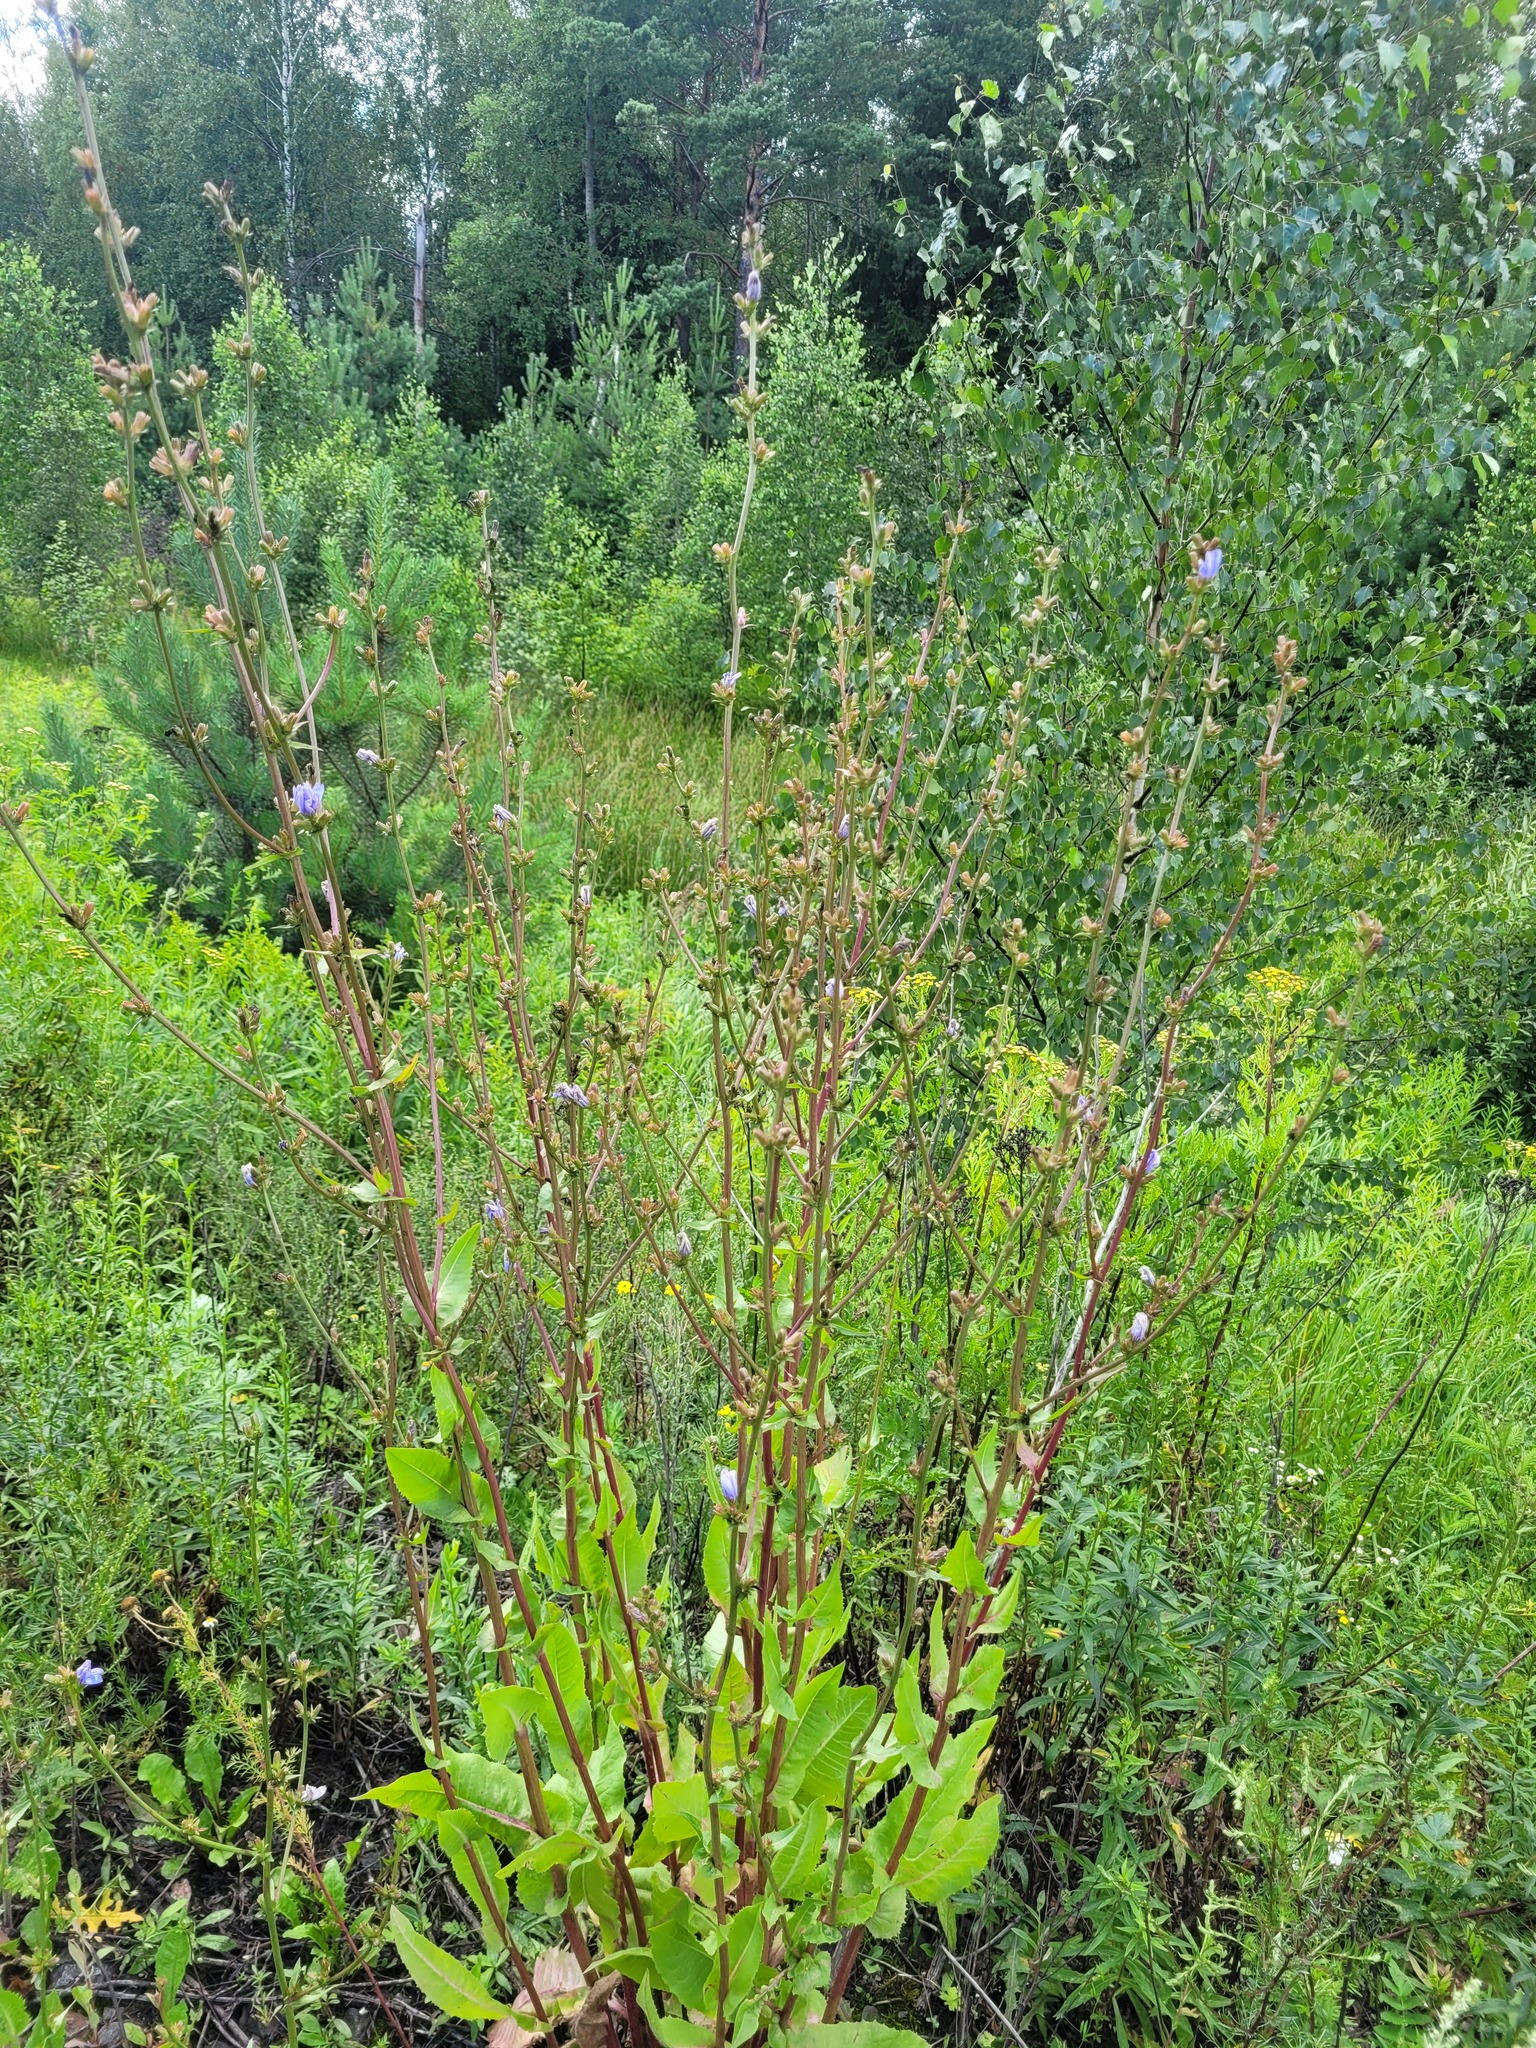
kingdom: Plantae
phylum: Tracheophyta
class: Magnoliopsida
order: Asterales
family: Asteraceae
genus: Cichorium
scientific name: Cichorium intybus
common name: Chicory
